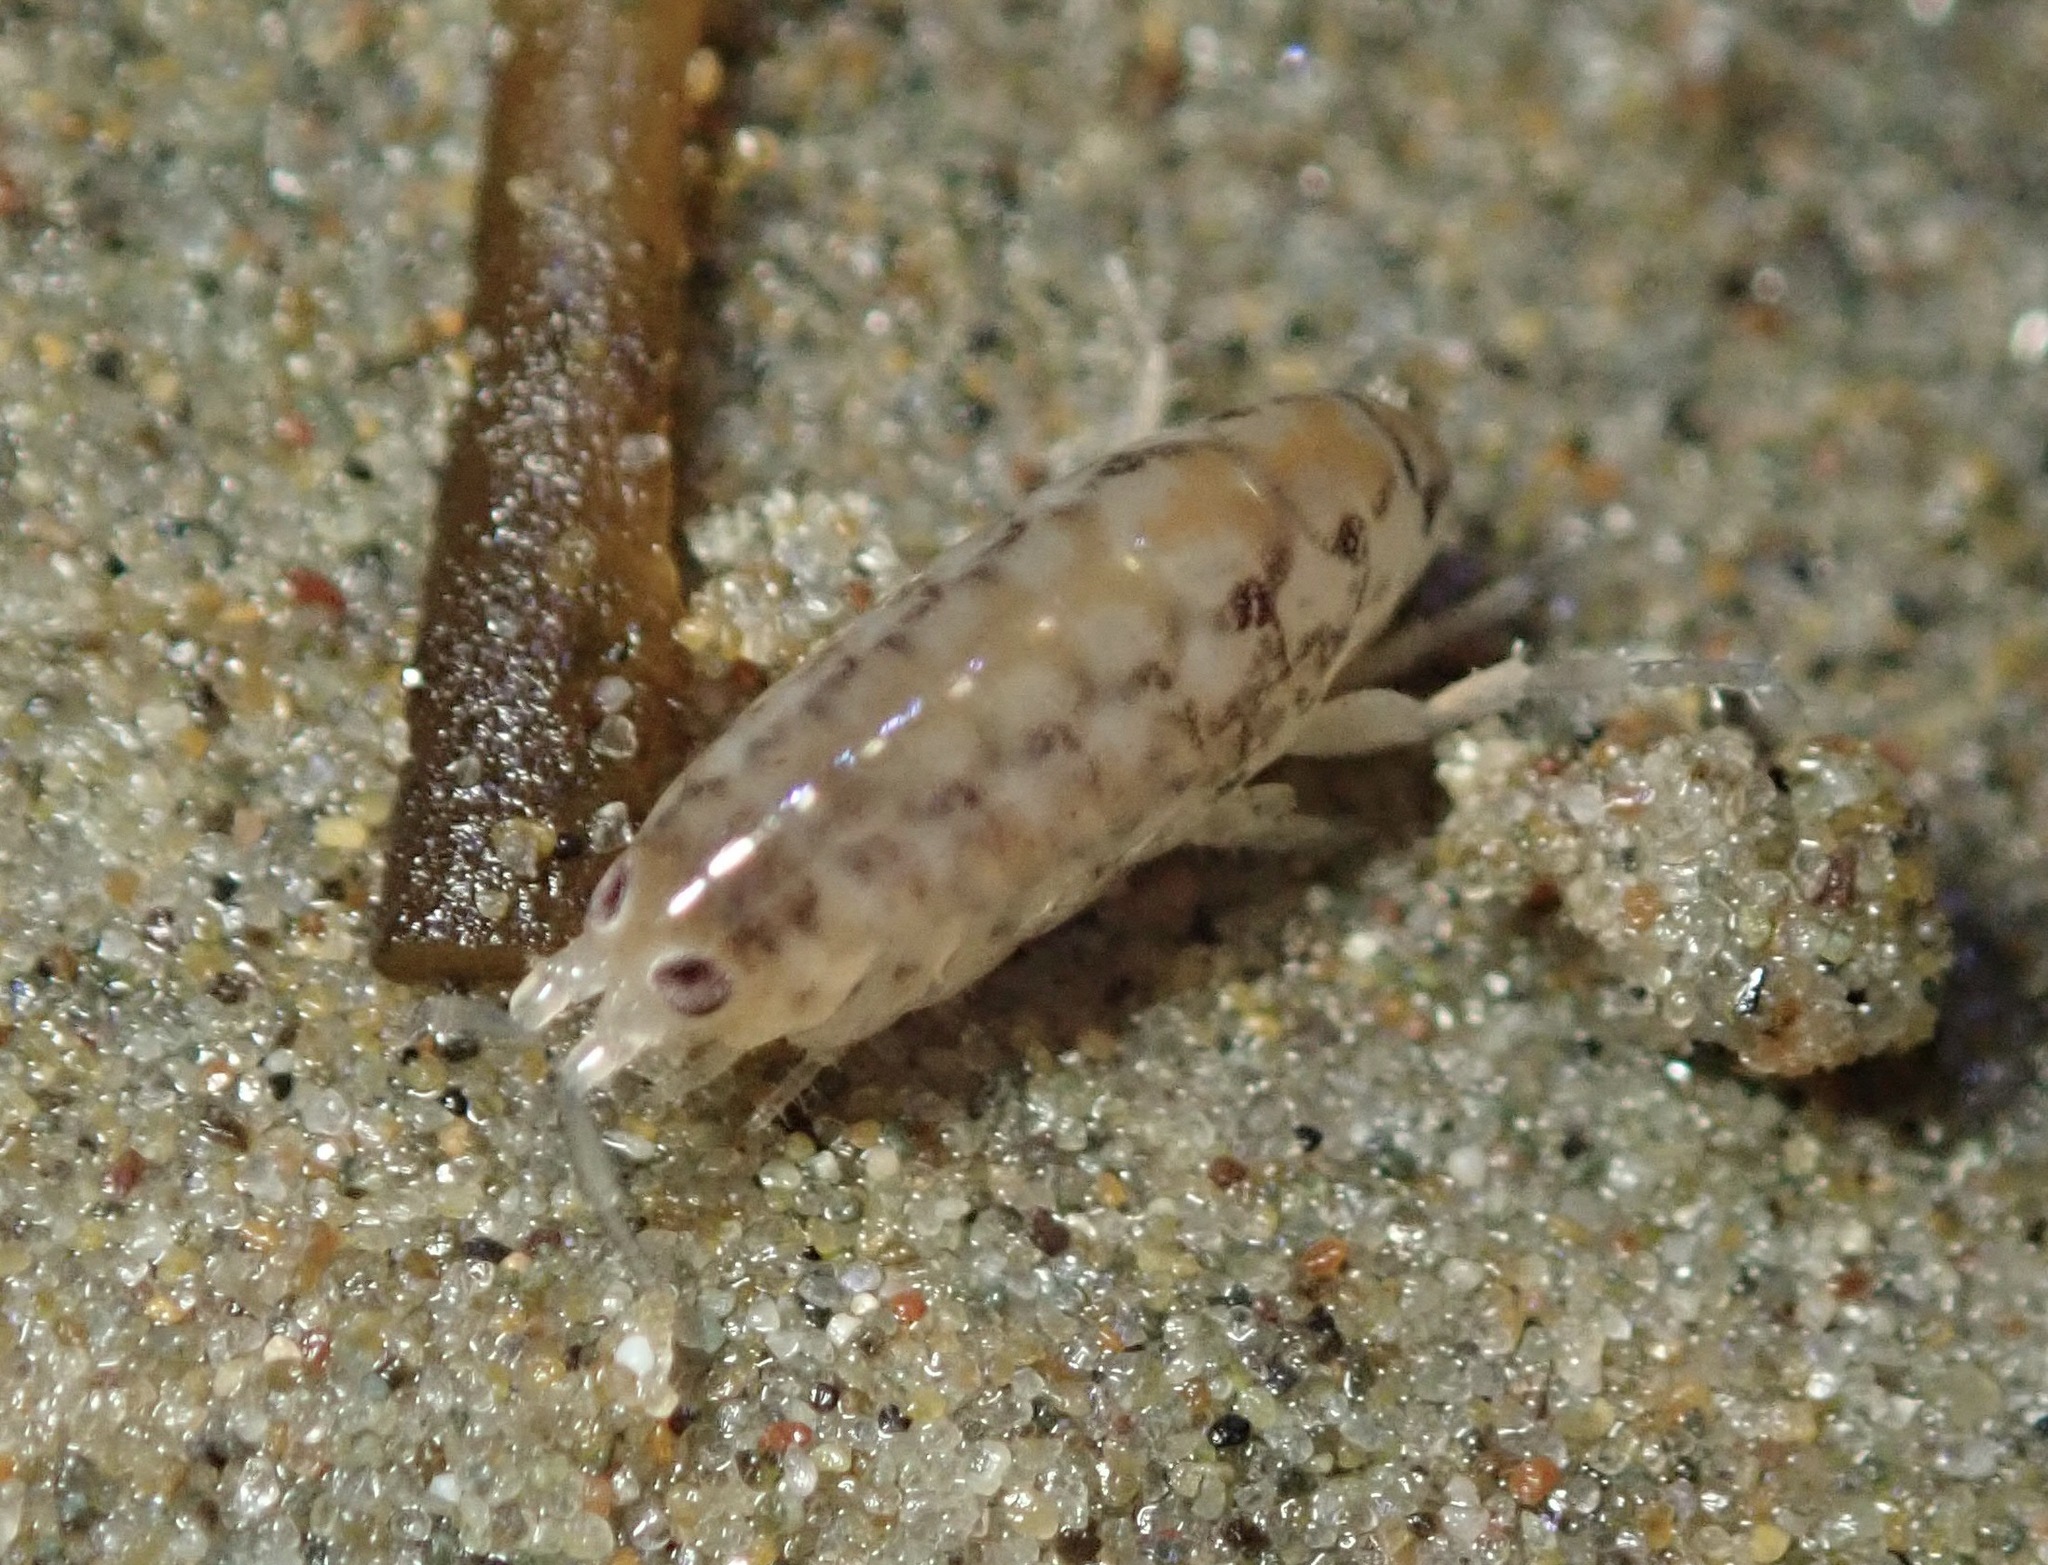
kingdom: Animalia
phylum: Arthropoda
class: Malacostraca
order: Amphipoda
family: Talitridae
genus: Megalorchestia
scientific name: Megalorchestia benedicti
